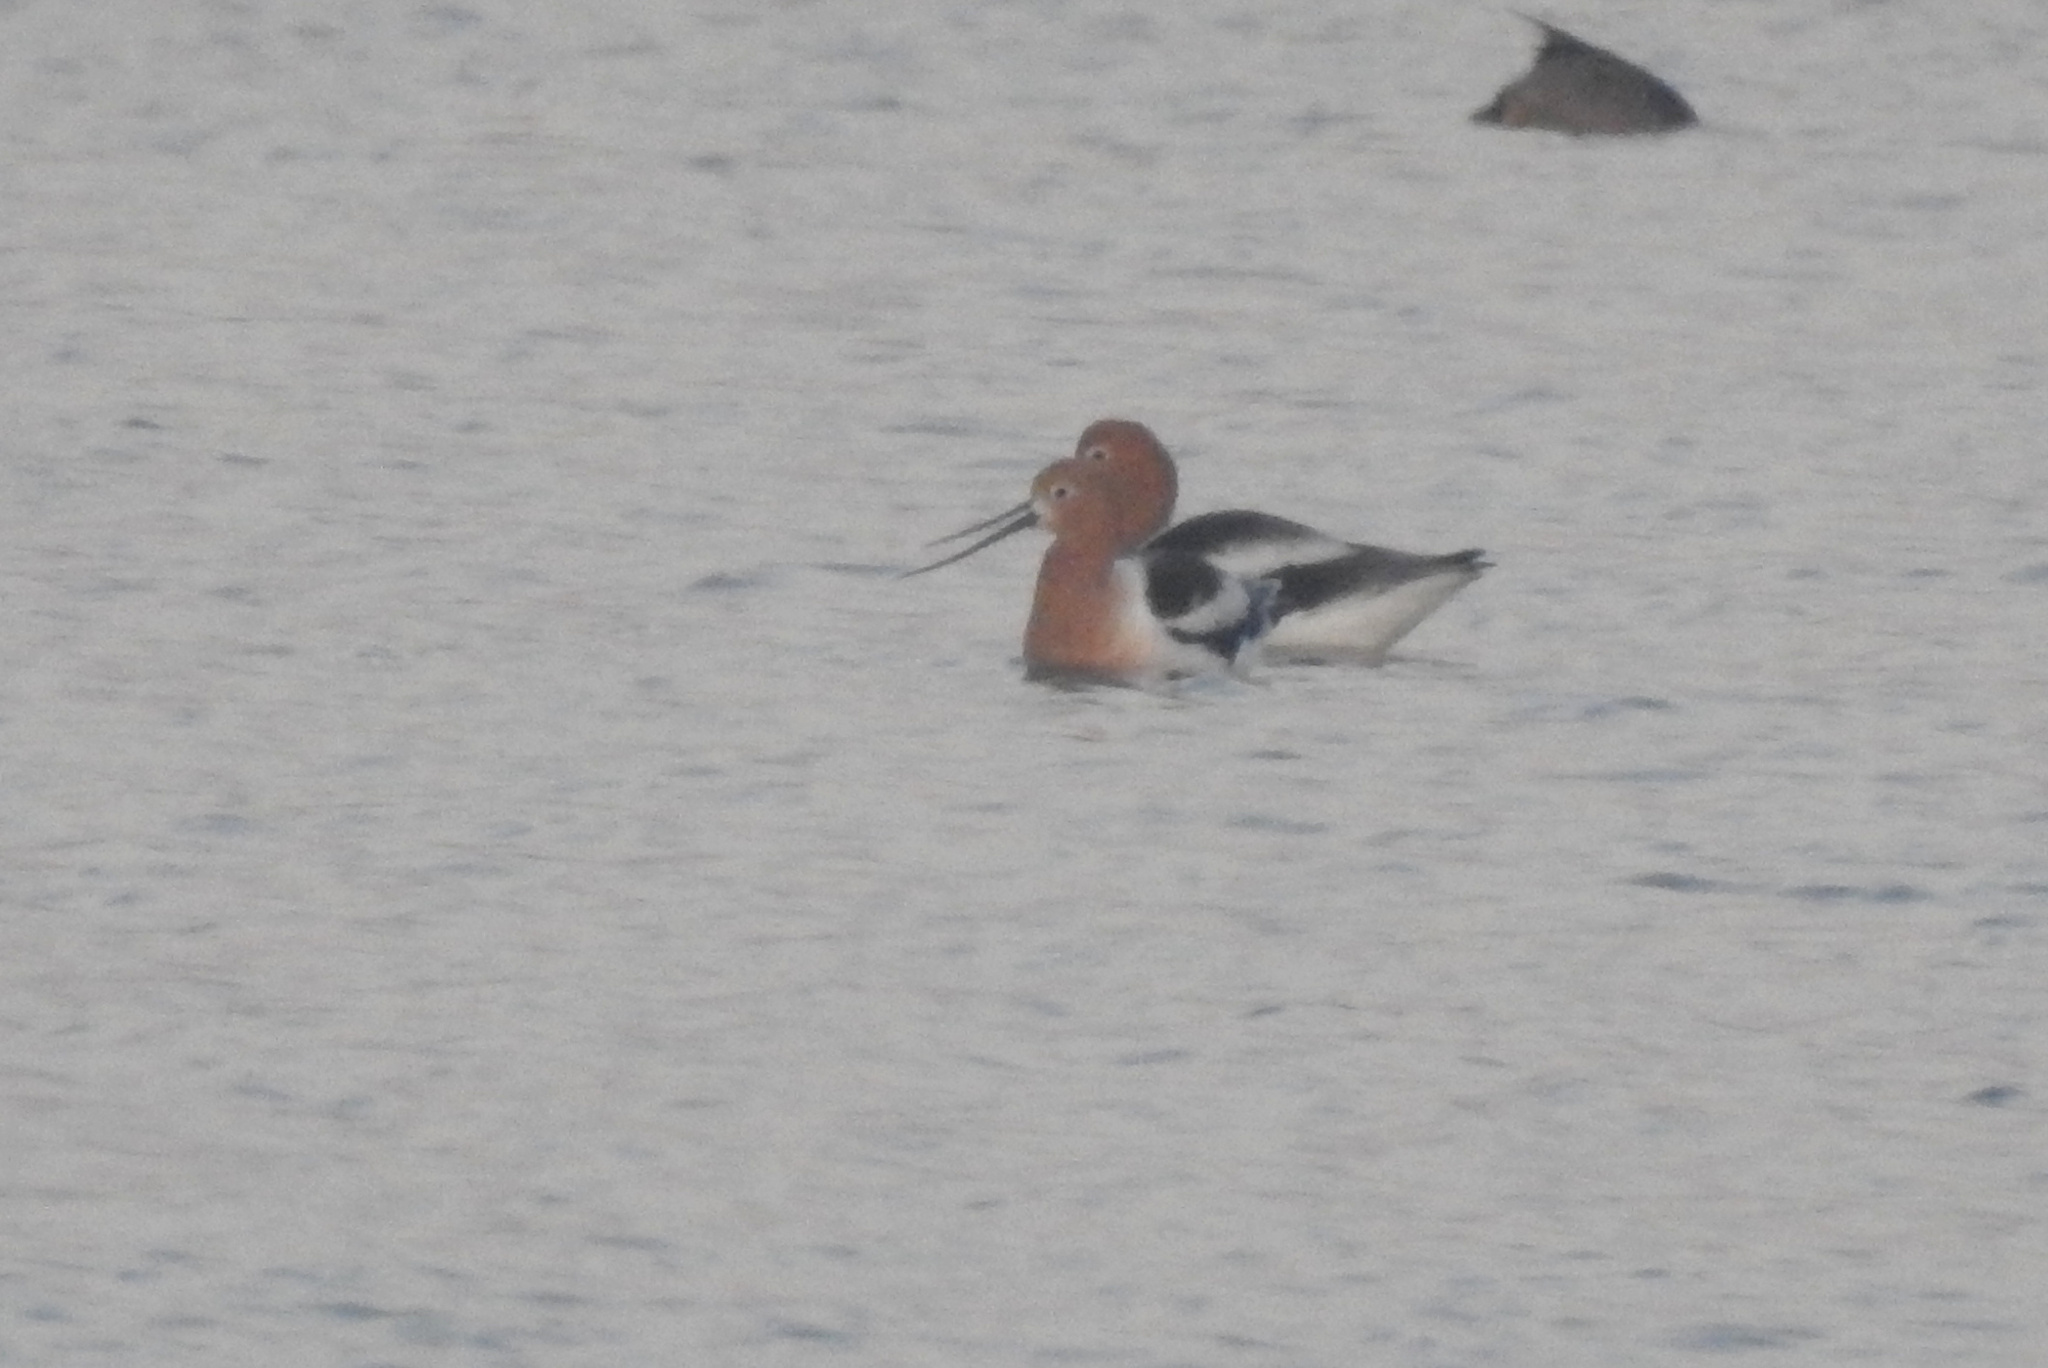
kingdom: Animalia
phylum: Chordata
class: Aves
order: Charadriiformes
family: Recurvirostridae
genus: Recurvirostra
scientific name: Recurvirostra americana
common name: American avocet
